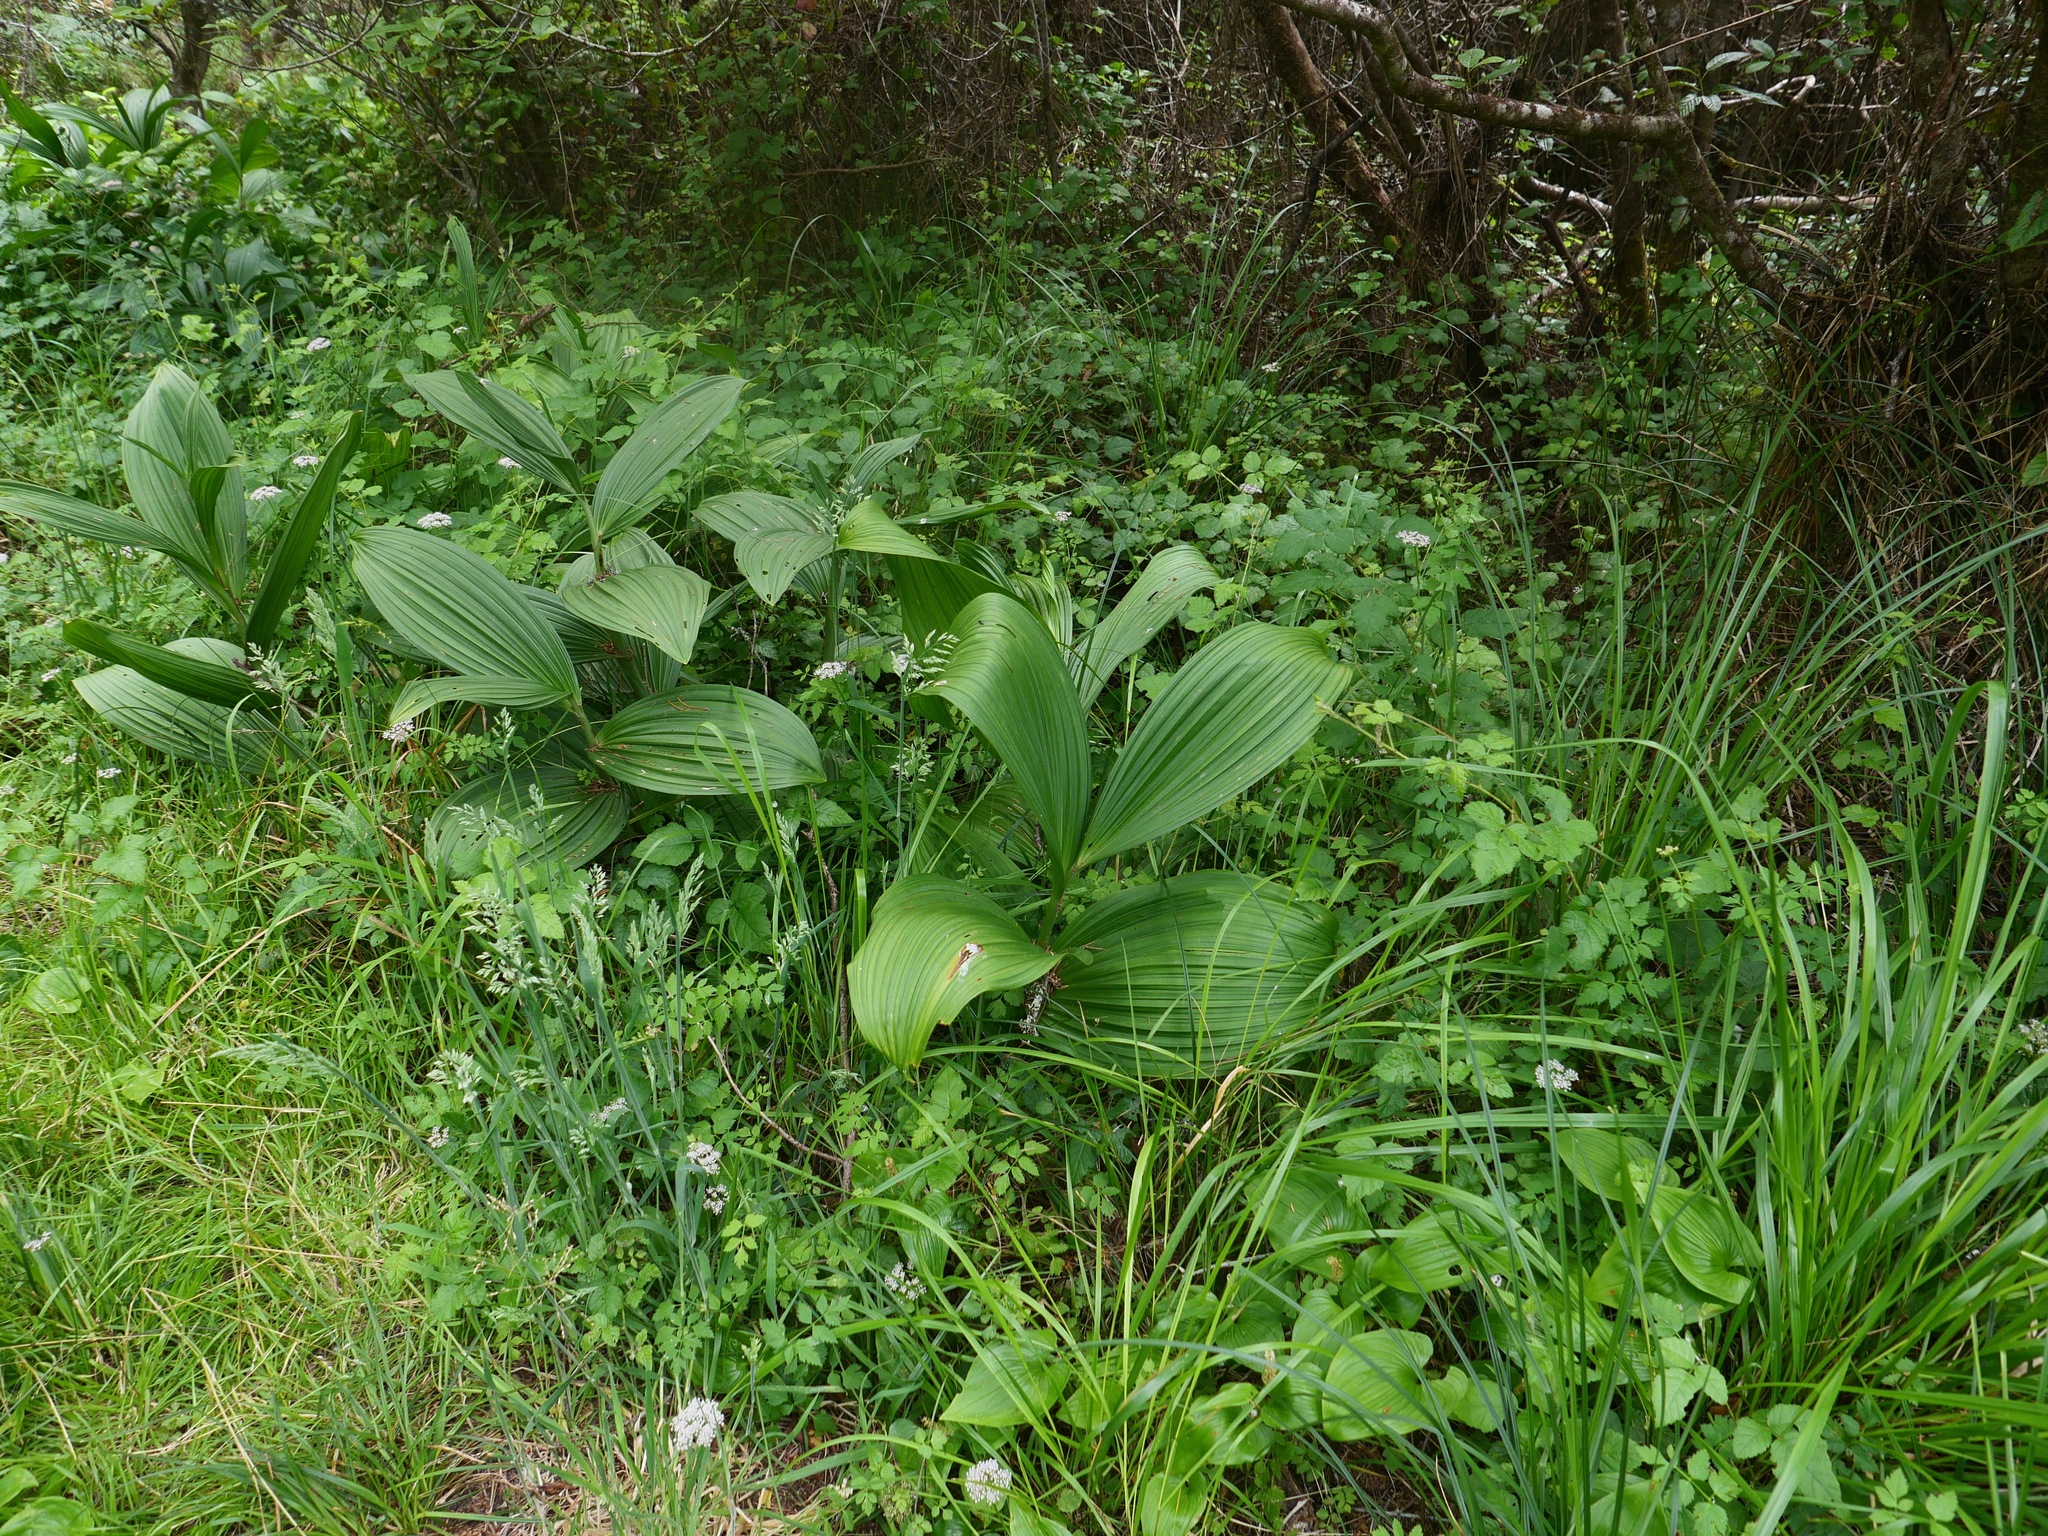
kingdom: Plantae
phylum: Tracheophyta
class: Liliopsida
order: Liliales
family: Melanthiaceae
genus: Veratrum
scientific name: Veratrum fimbriatum
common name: Fringe false hellobore
